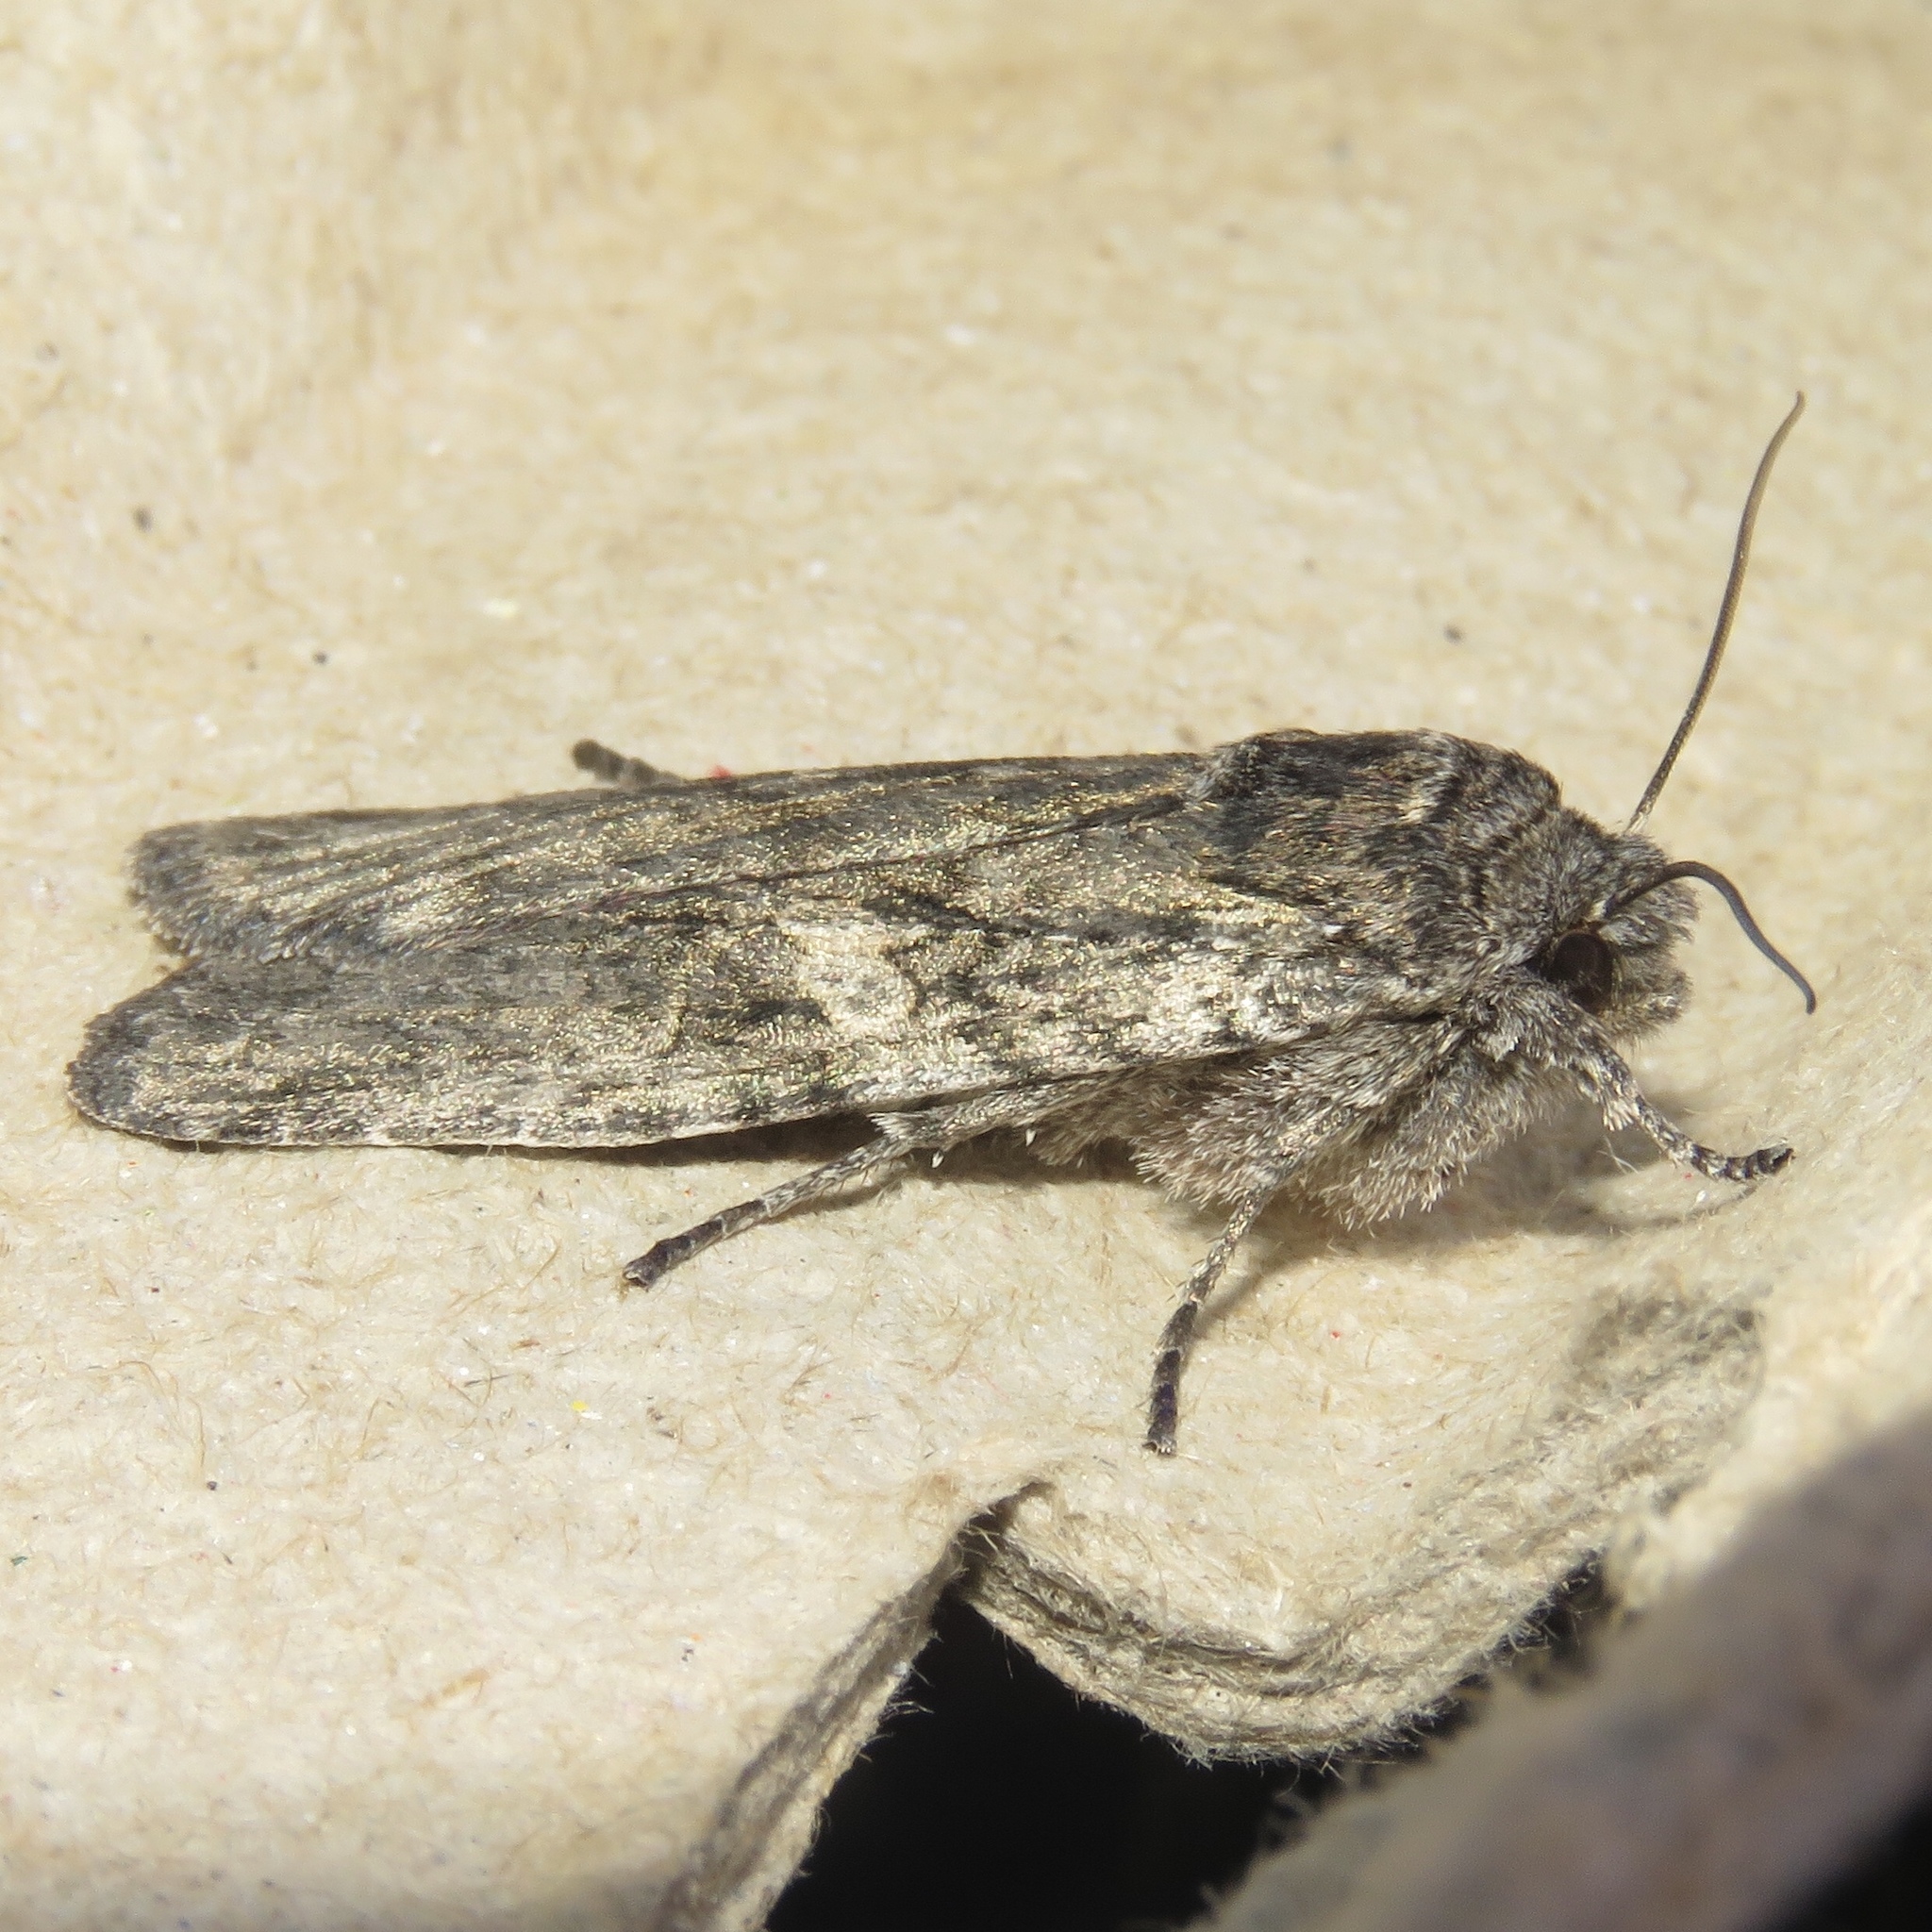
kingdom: Animalia
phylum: Arthropoda
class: Insecta
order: Lepidoptera
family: Noctuidae
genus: Lithophane
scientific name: Lithophane grotei
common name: Grote's pinion moth
